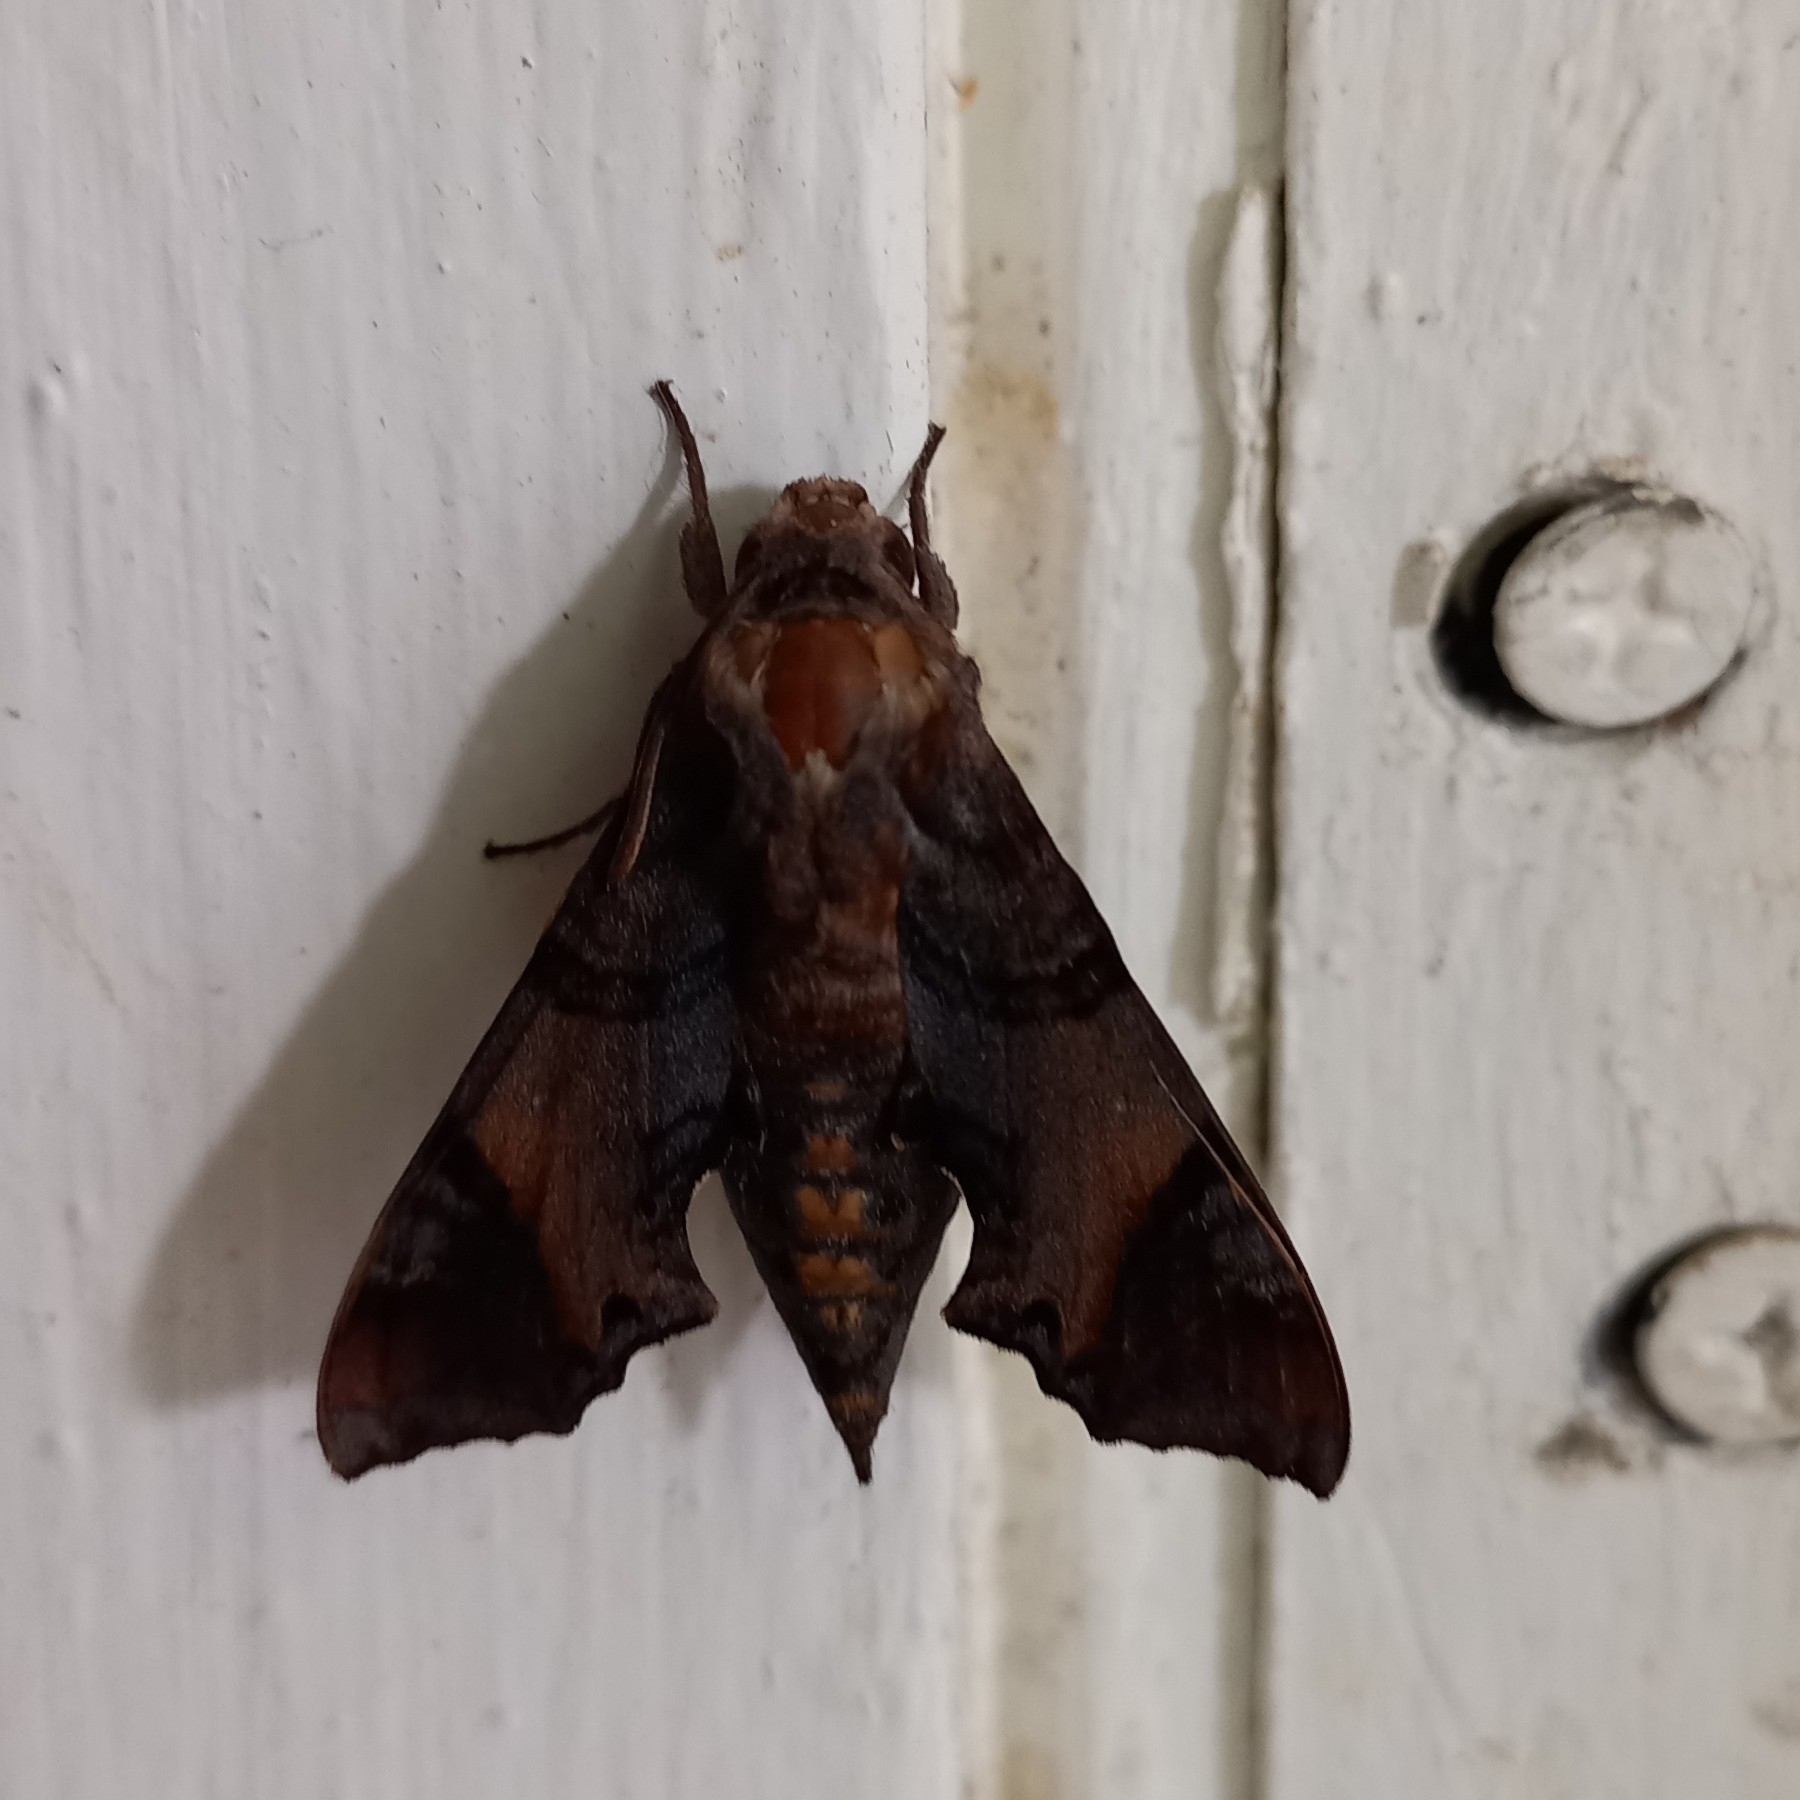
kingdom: Animalia
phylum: Arthropoda
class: Insecta
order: Lepidoptera
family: Sphingidae
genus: Temnora
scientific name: Temnora pylas
